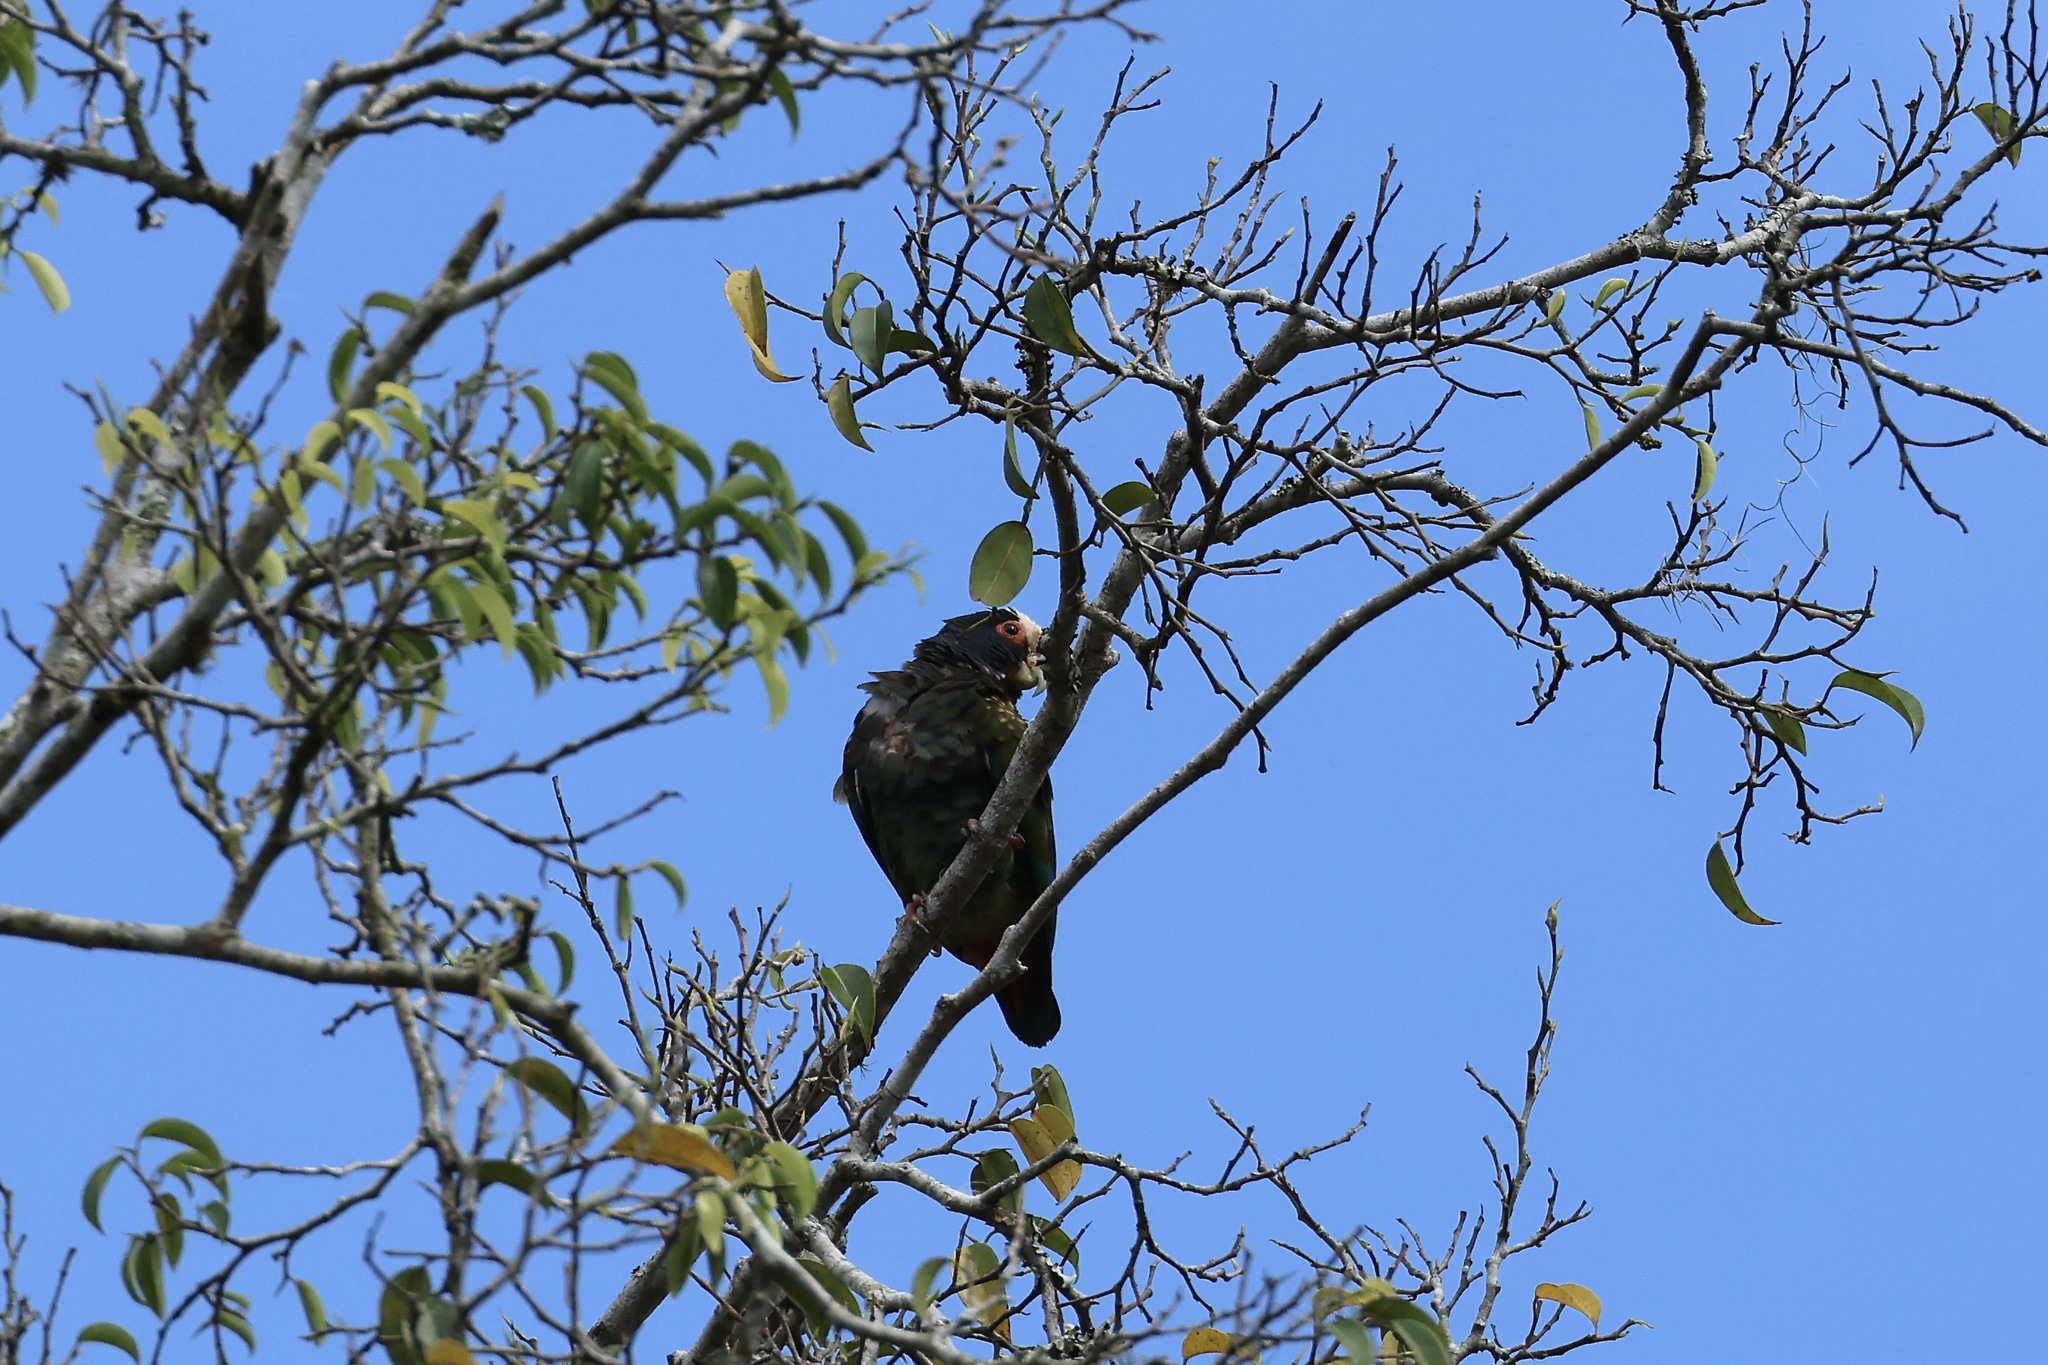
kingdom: Animalia
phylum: Chordata
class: Aves
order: Psittaciformes
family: Psittacidae
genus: Pionus
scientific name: Pionus senilis
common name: White-crowned parrot
